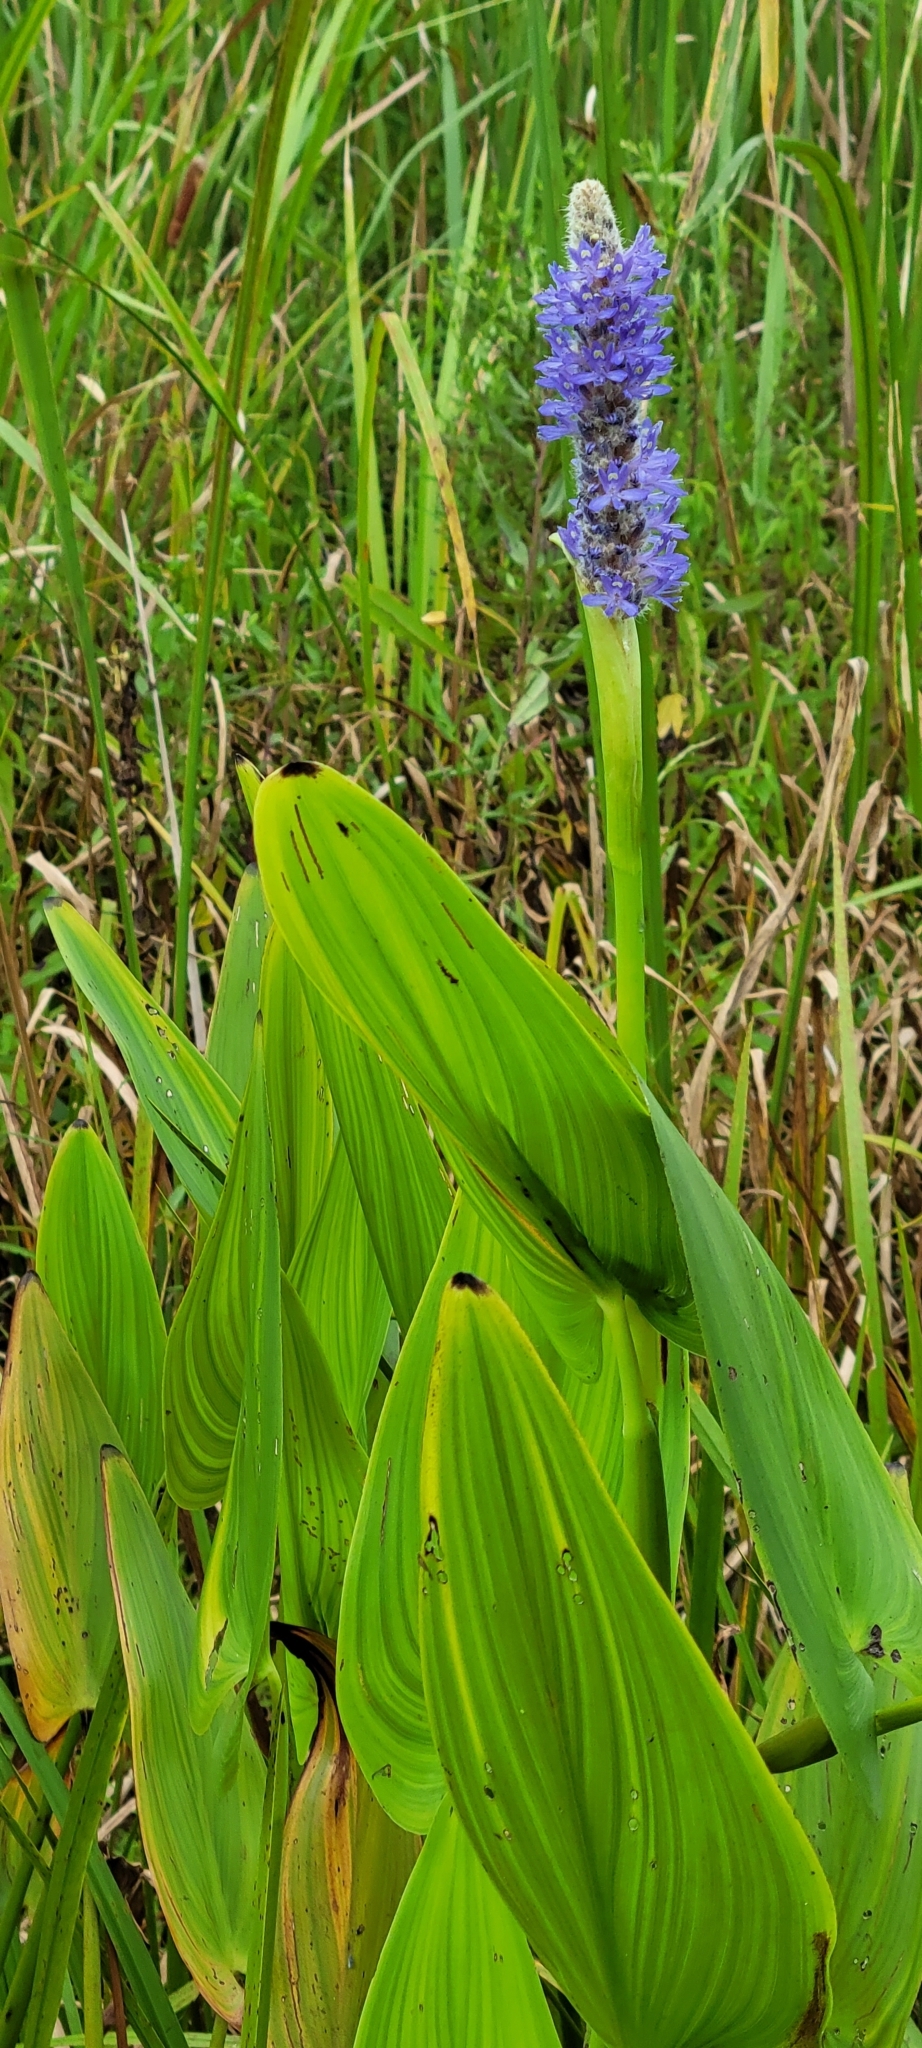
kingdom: Plantae
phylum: Tracheophyta
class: Liliopsida
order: Commelinales
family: Pontederiaceae
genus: Pontederia
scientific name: Pontederia cordata
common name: Pickerelweed
